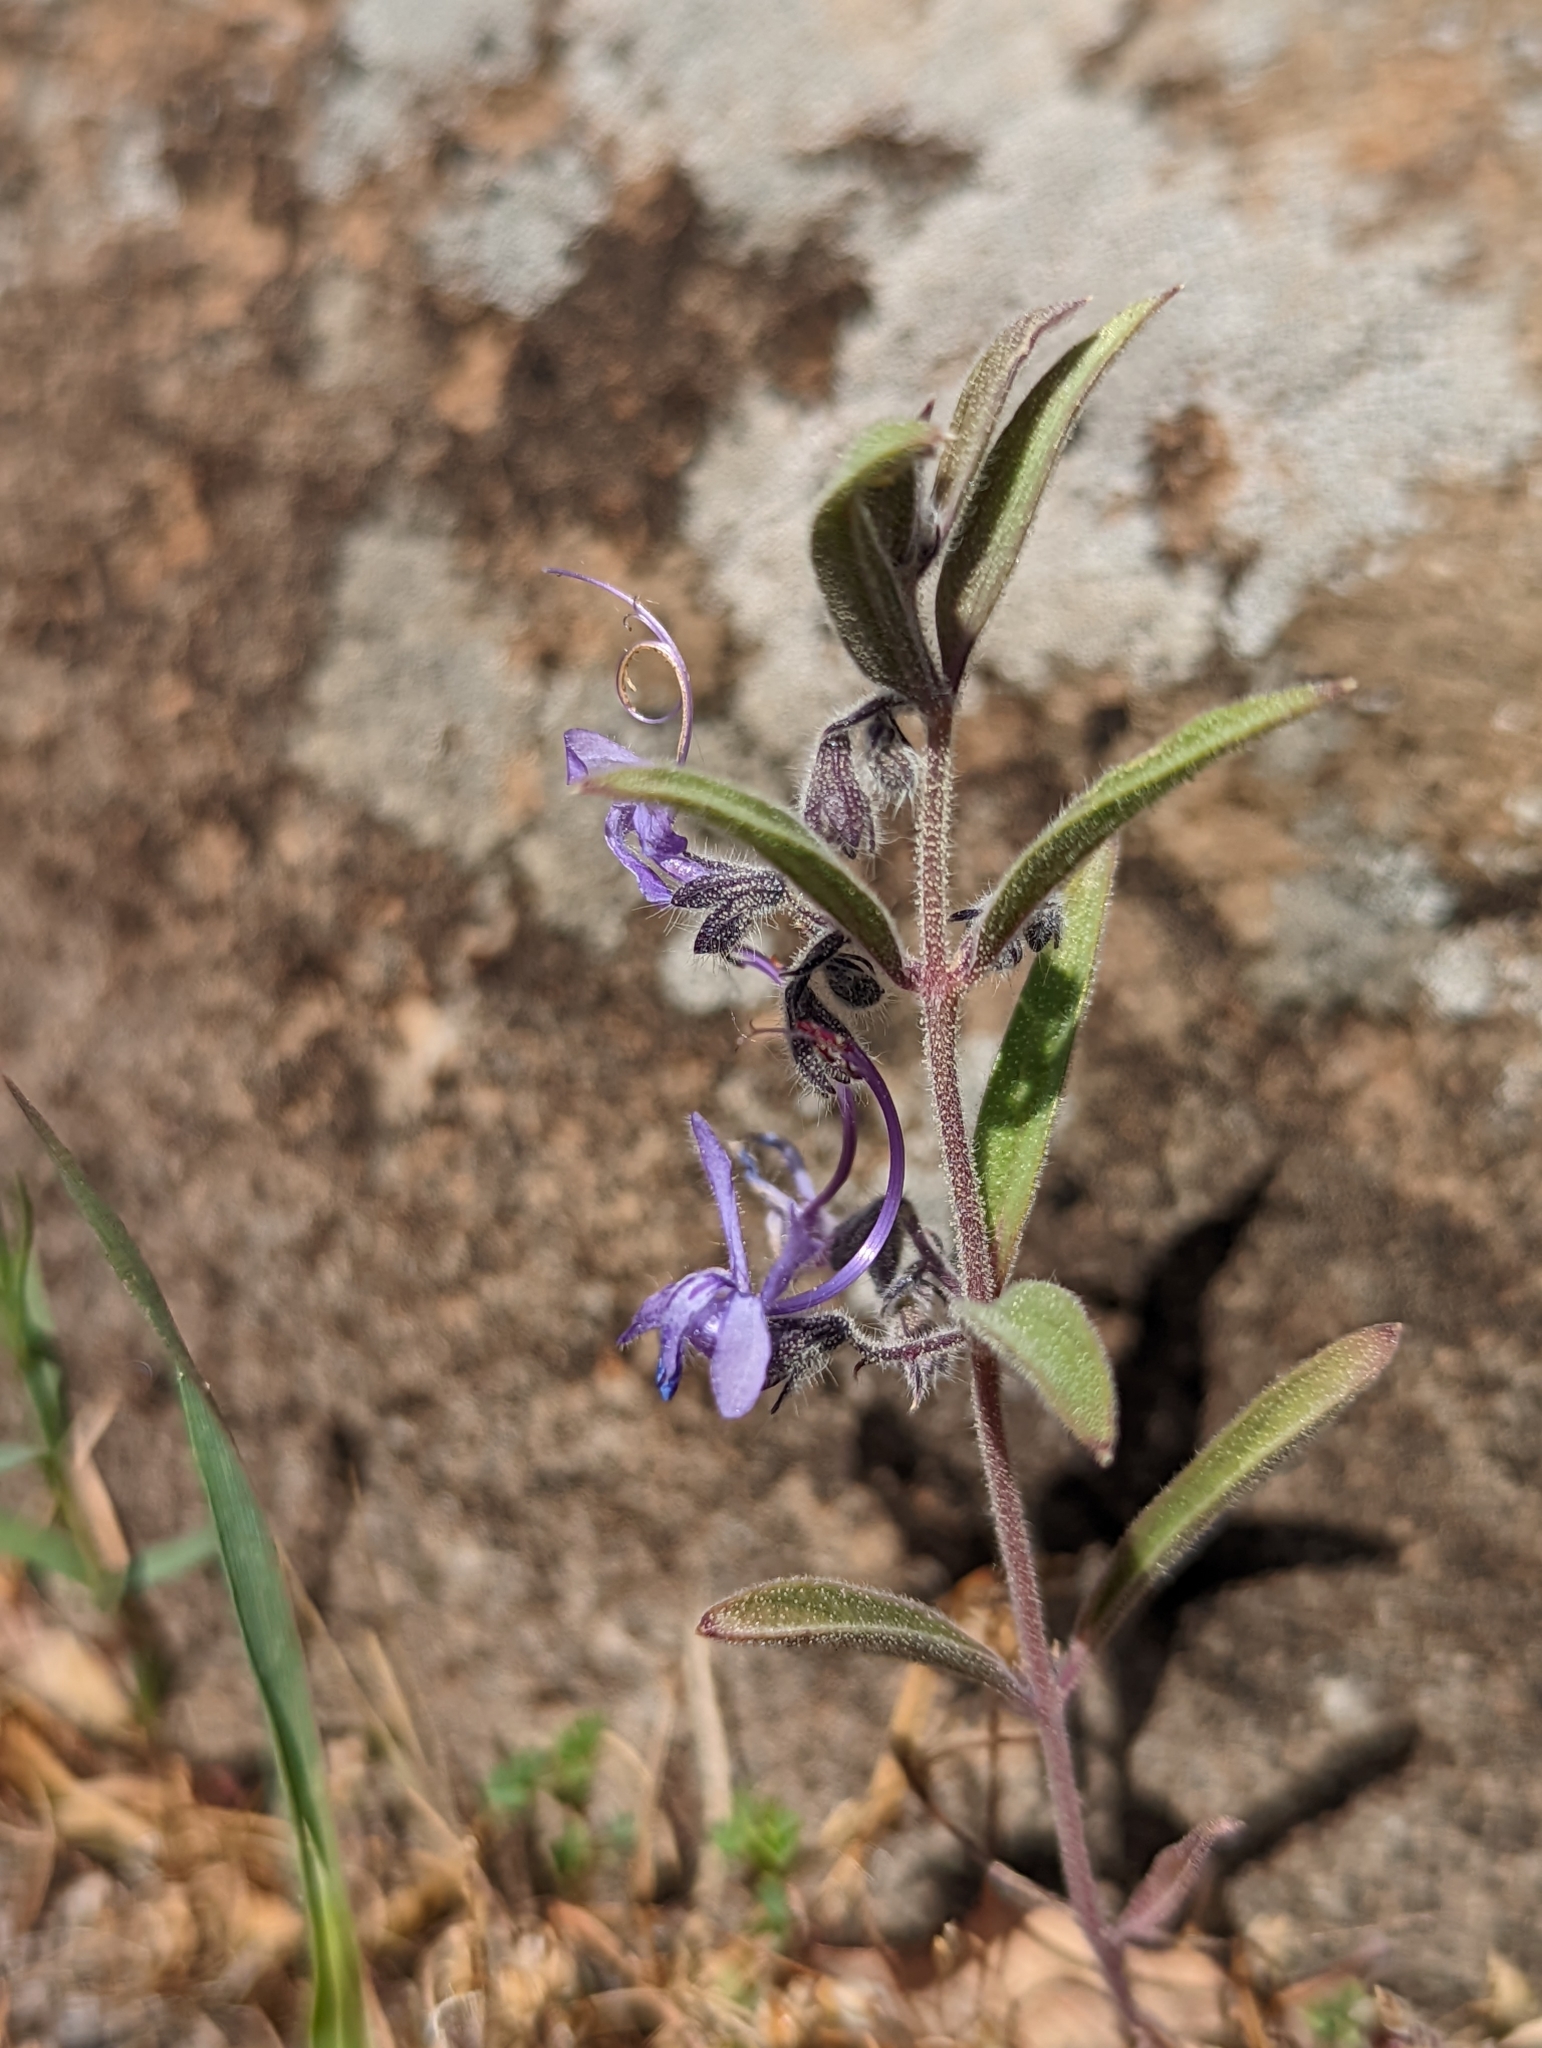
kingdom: Plantae
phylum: Tracheophyta
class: Magnoliopsida
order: Lamiales
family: Lamiaceae
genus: Trichostema
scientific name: Trichostema lanceolatum
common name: Vinegar-weed
